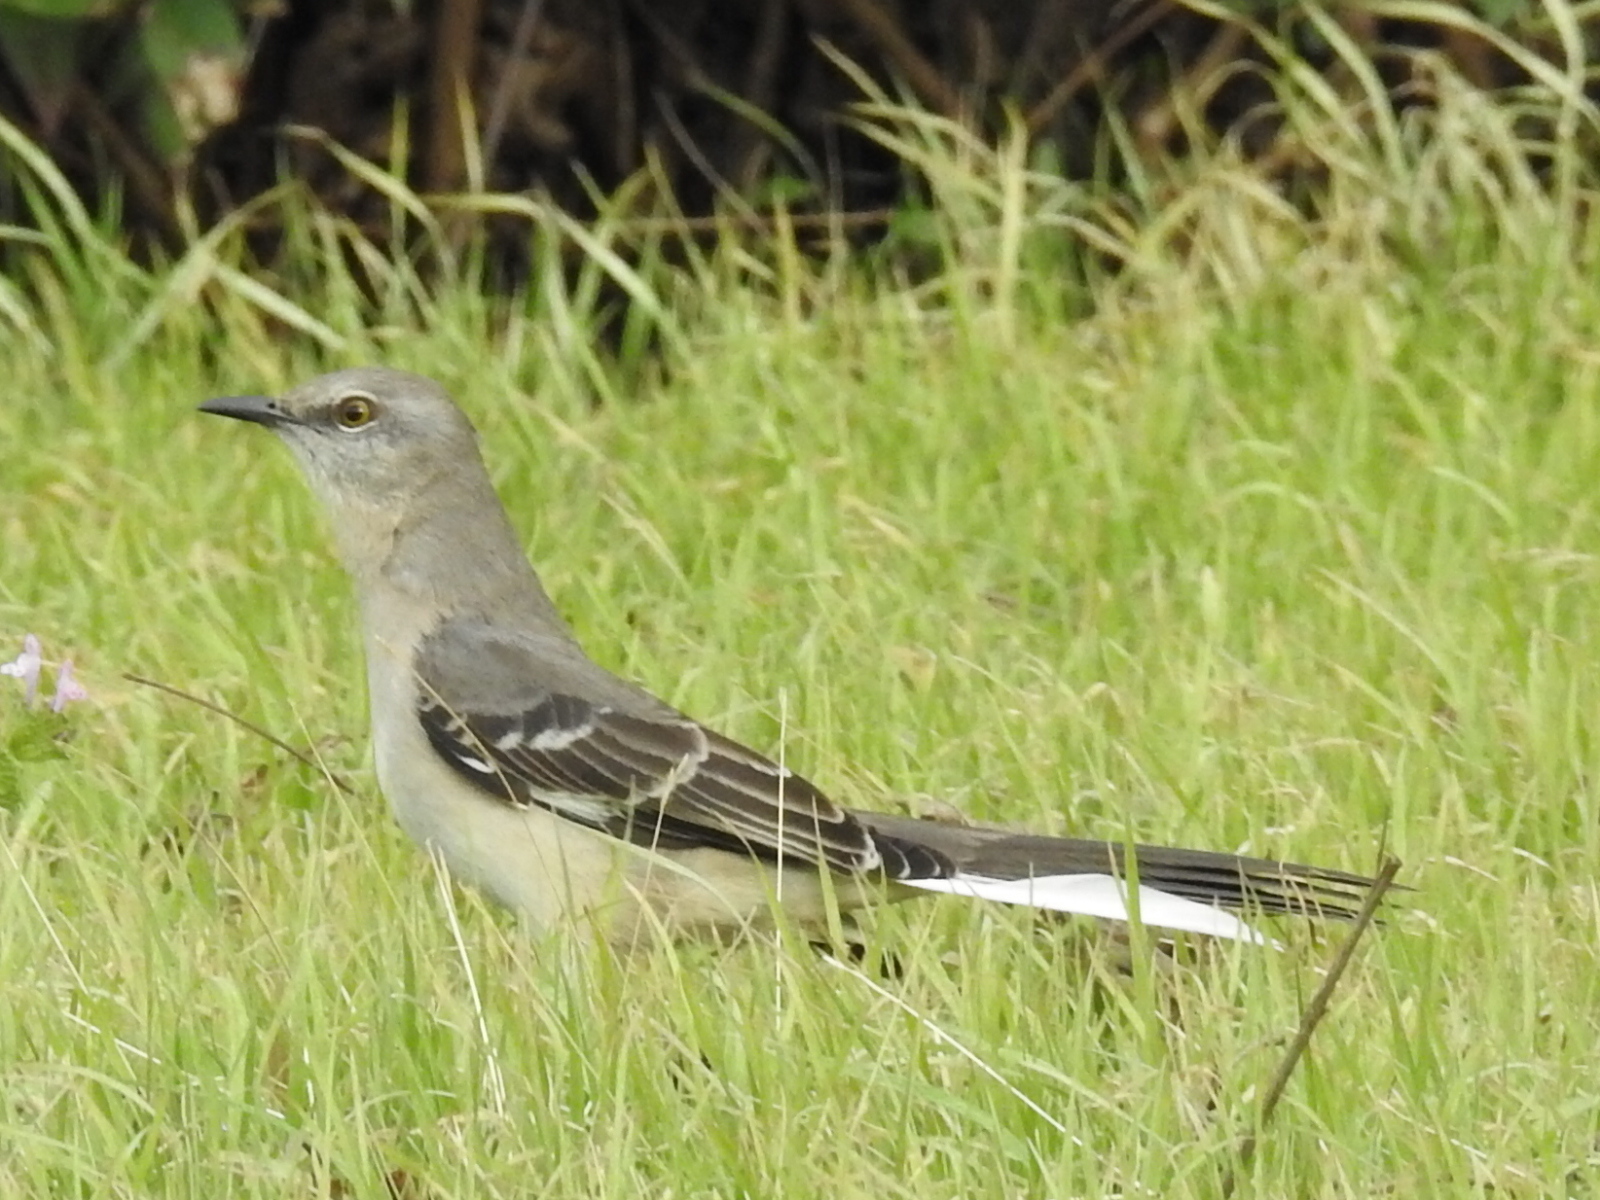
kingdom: Animalia
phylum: Chordata
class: Aves
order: Passeriformes
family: Mimidae
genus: Mimus
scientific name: Mimus polyglottos
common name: Northern mockingbird
